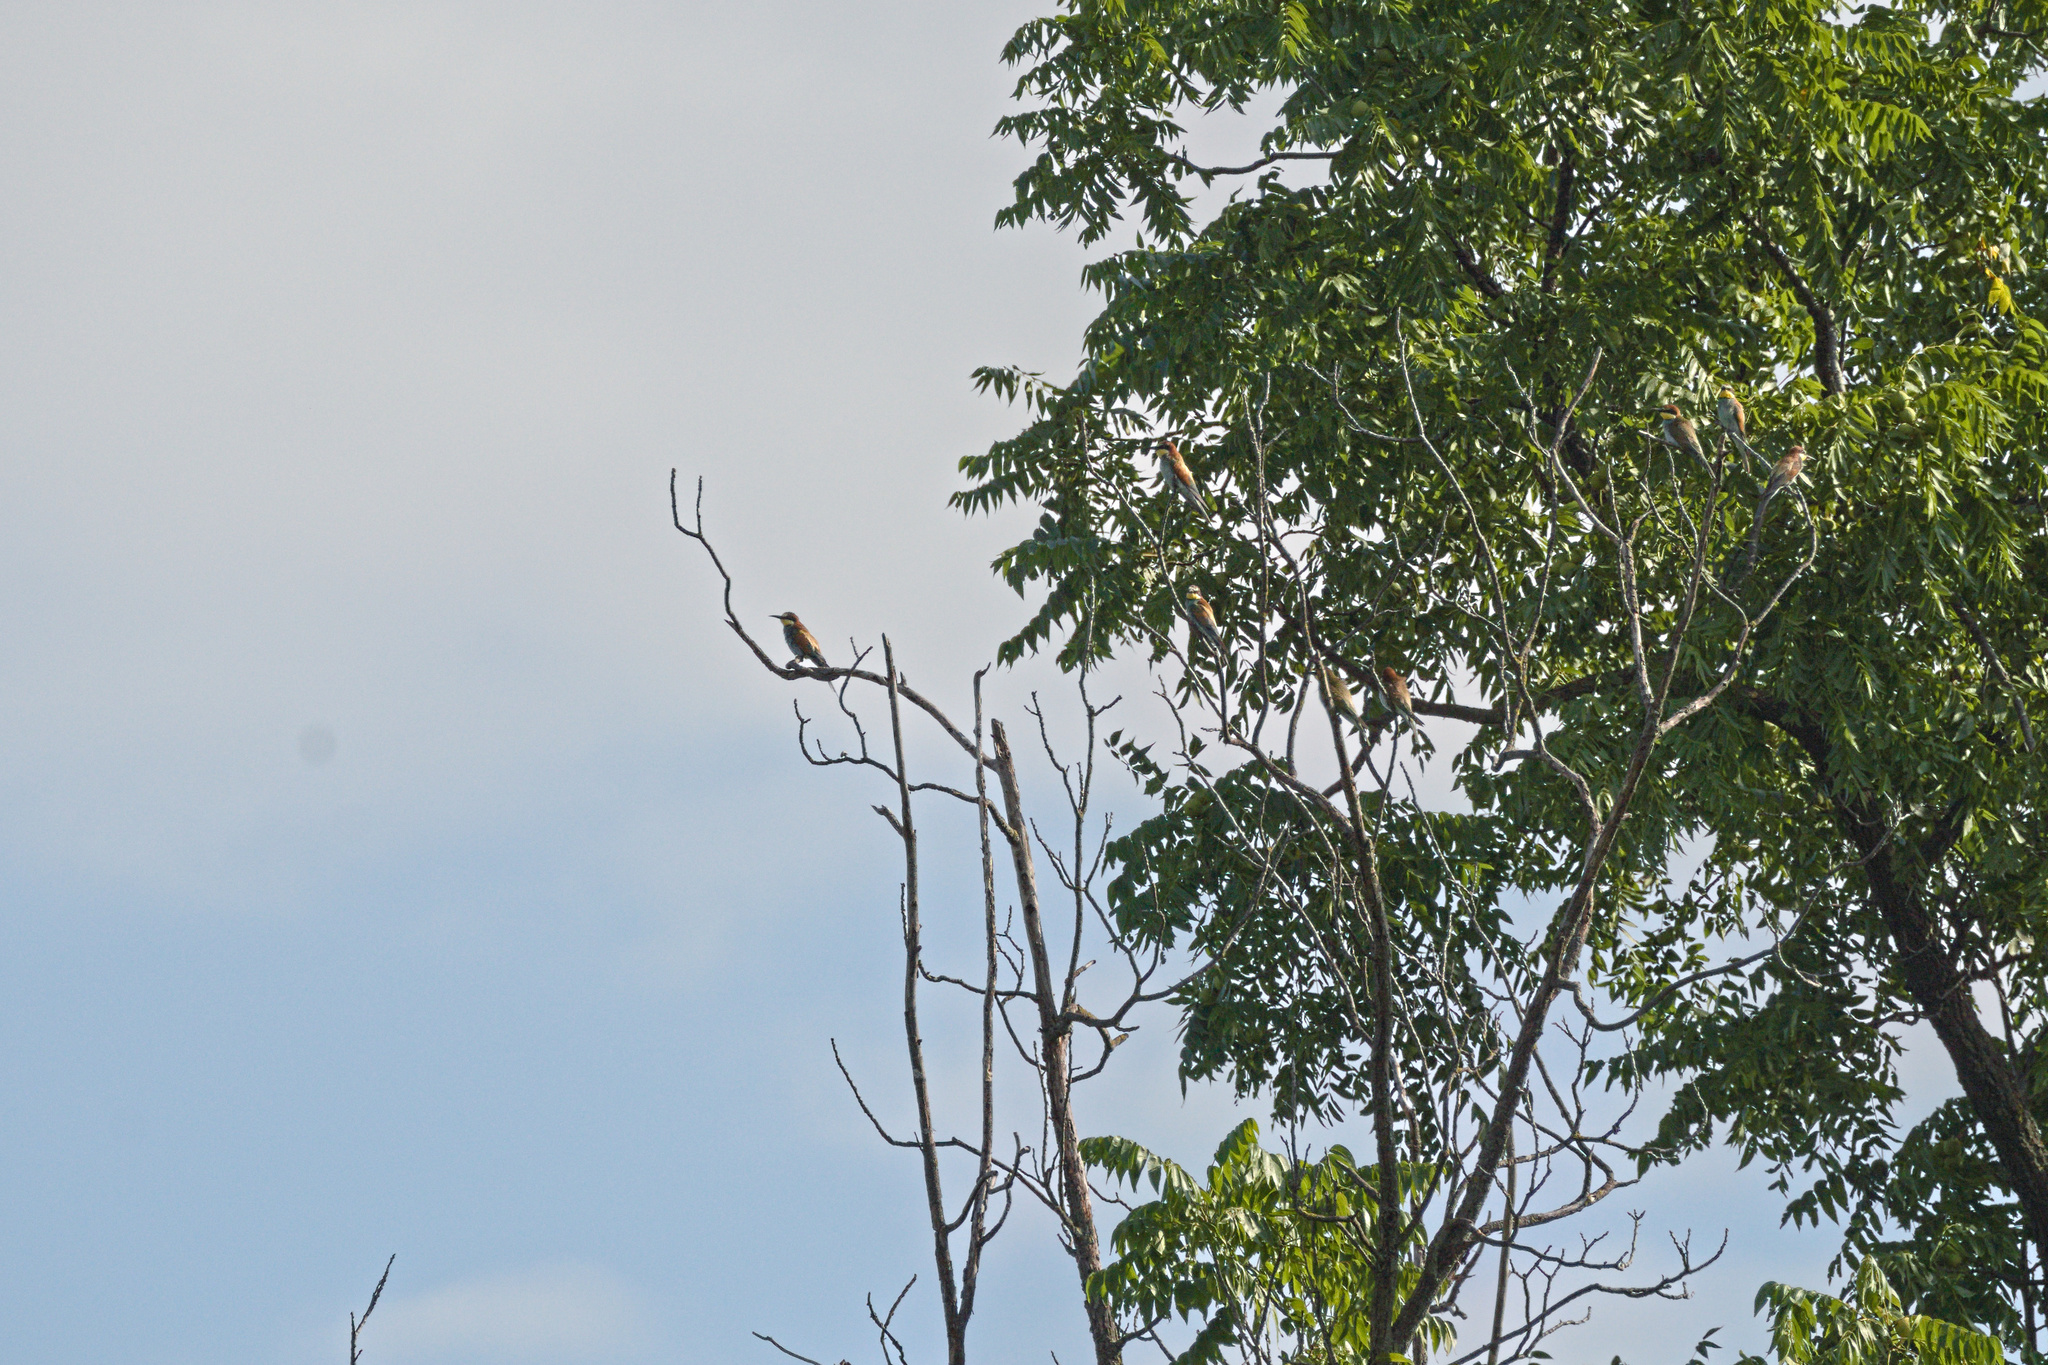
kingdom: Animalia
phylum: Chordata
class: Aves
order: Coraciiformes
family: Meropidae
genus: Merops
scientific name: Merops apiaster
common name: European bee-eater
